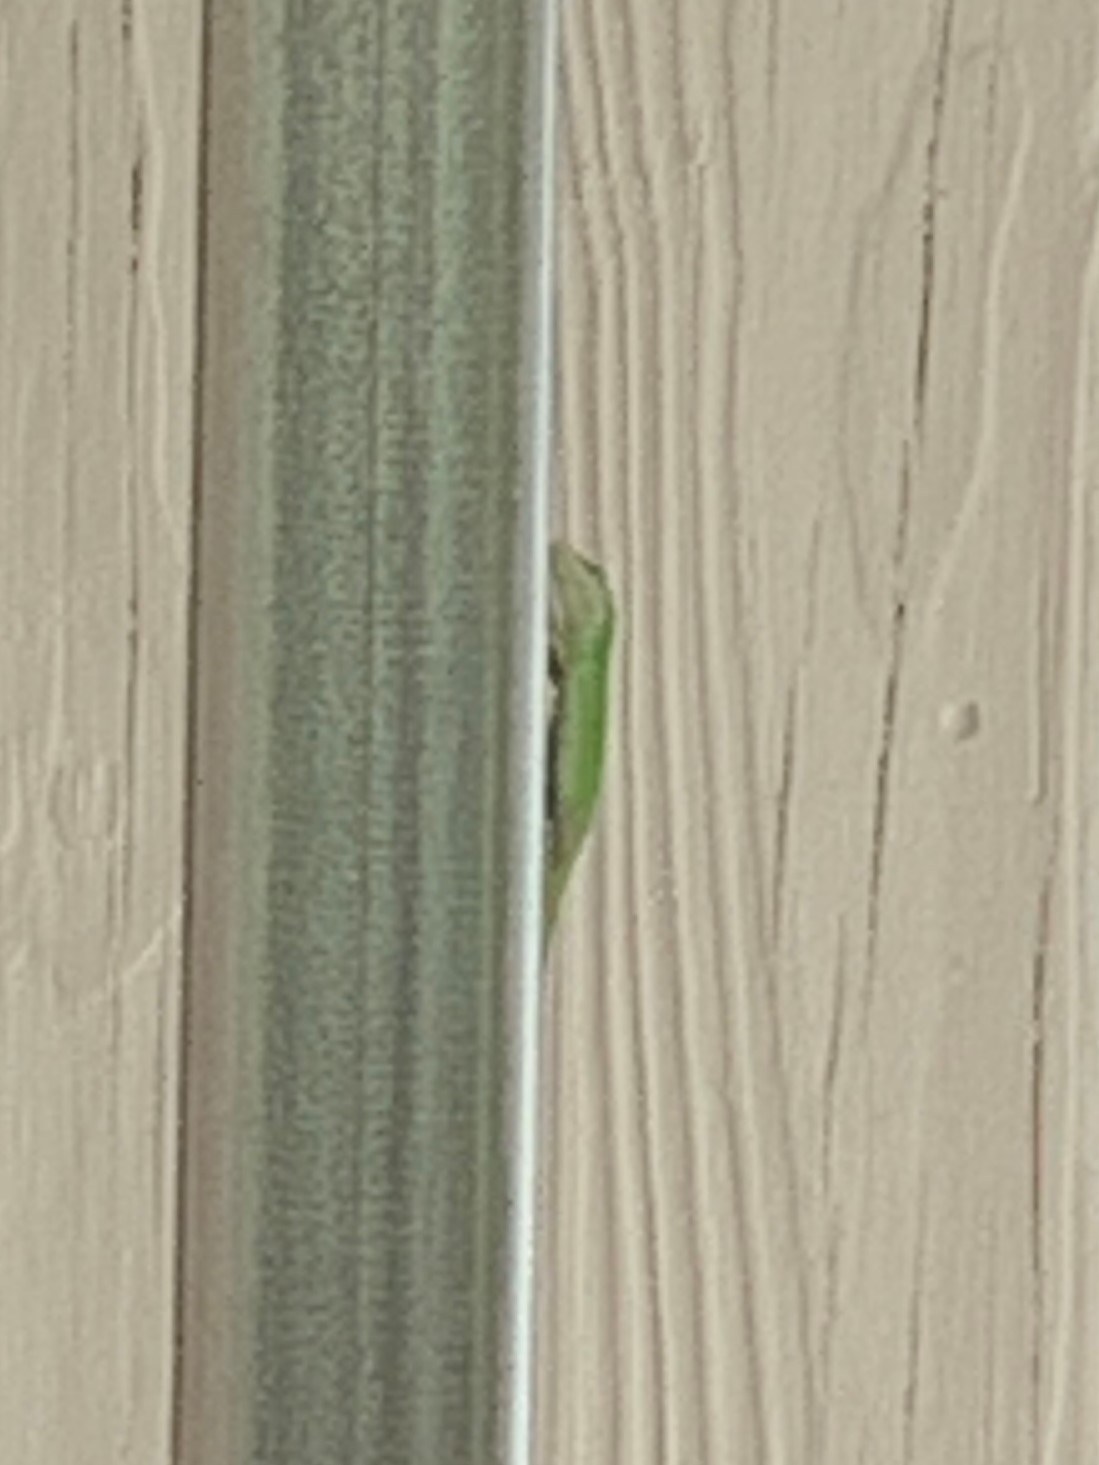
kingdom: Animalia
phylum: Chordata
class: Squamata
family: Dactyloidae
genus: Anolis
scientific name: Anolis carolinensis
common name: Green anole
